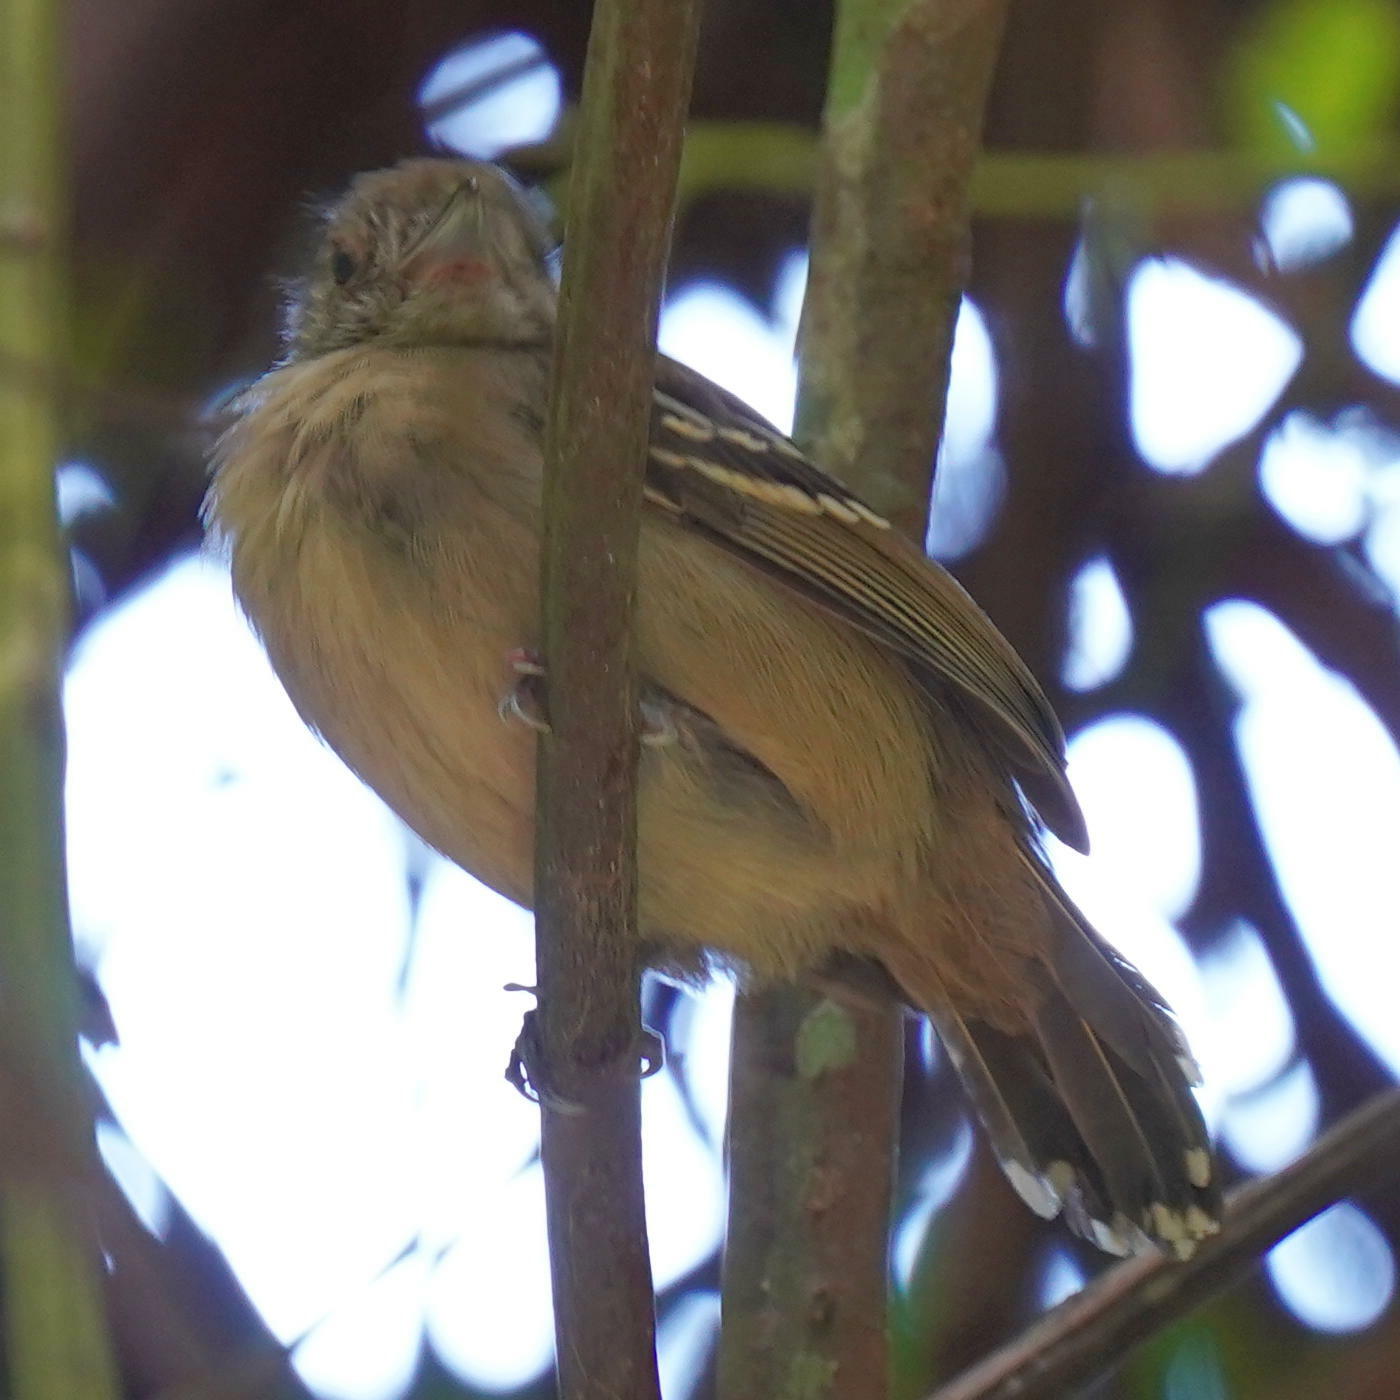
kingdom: Animalia
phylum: Chordata
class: Aves
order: Passeriformes
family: Thamnophilidae
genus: Thamnophilus
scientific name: Thamnophilus atrinucha
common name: Black-crowned antshrike
